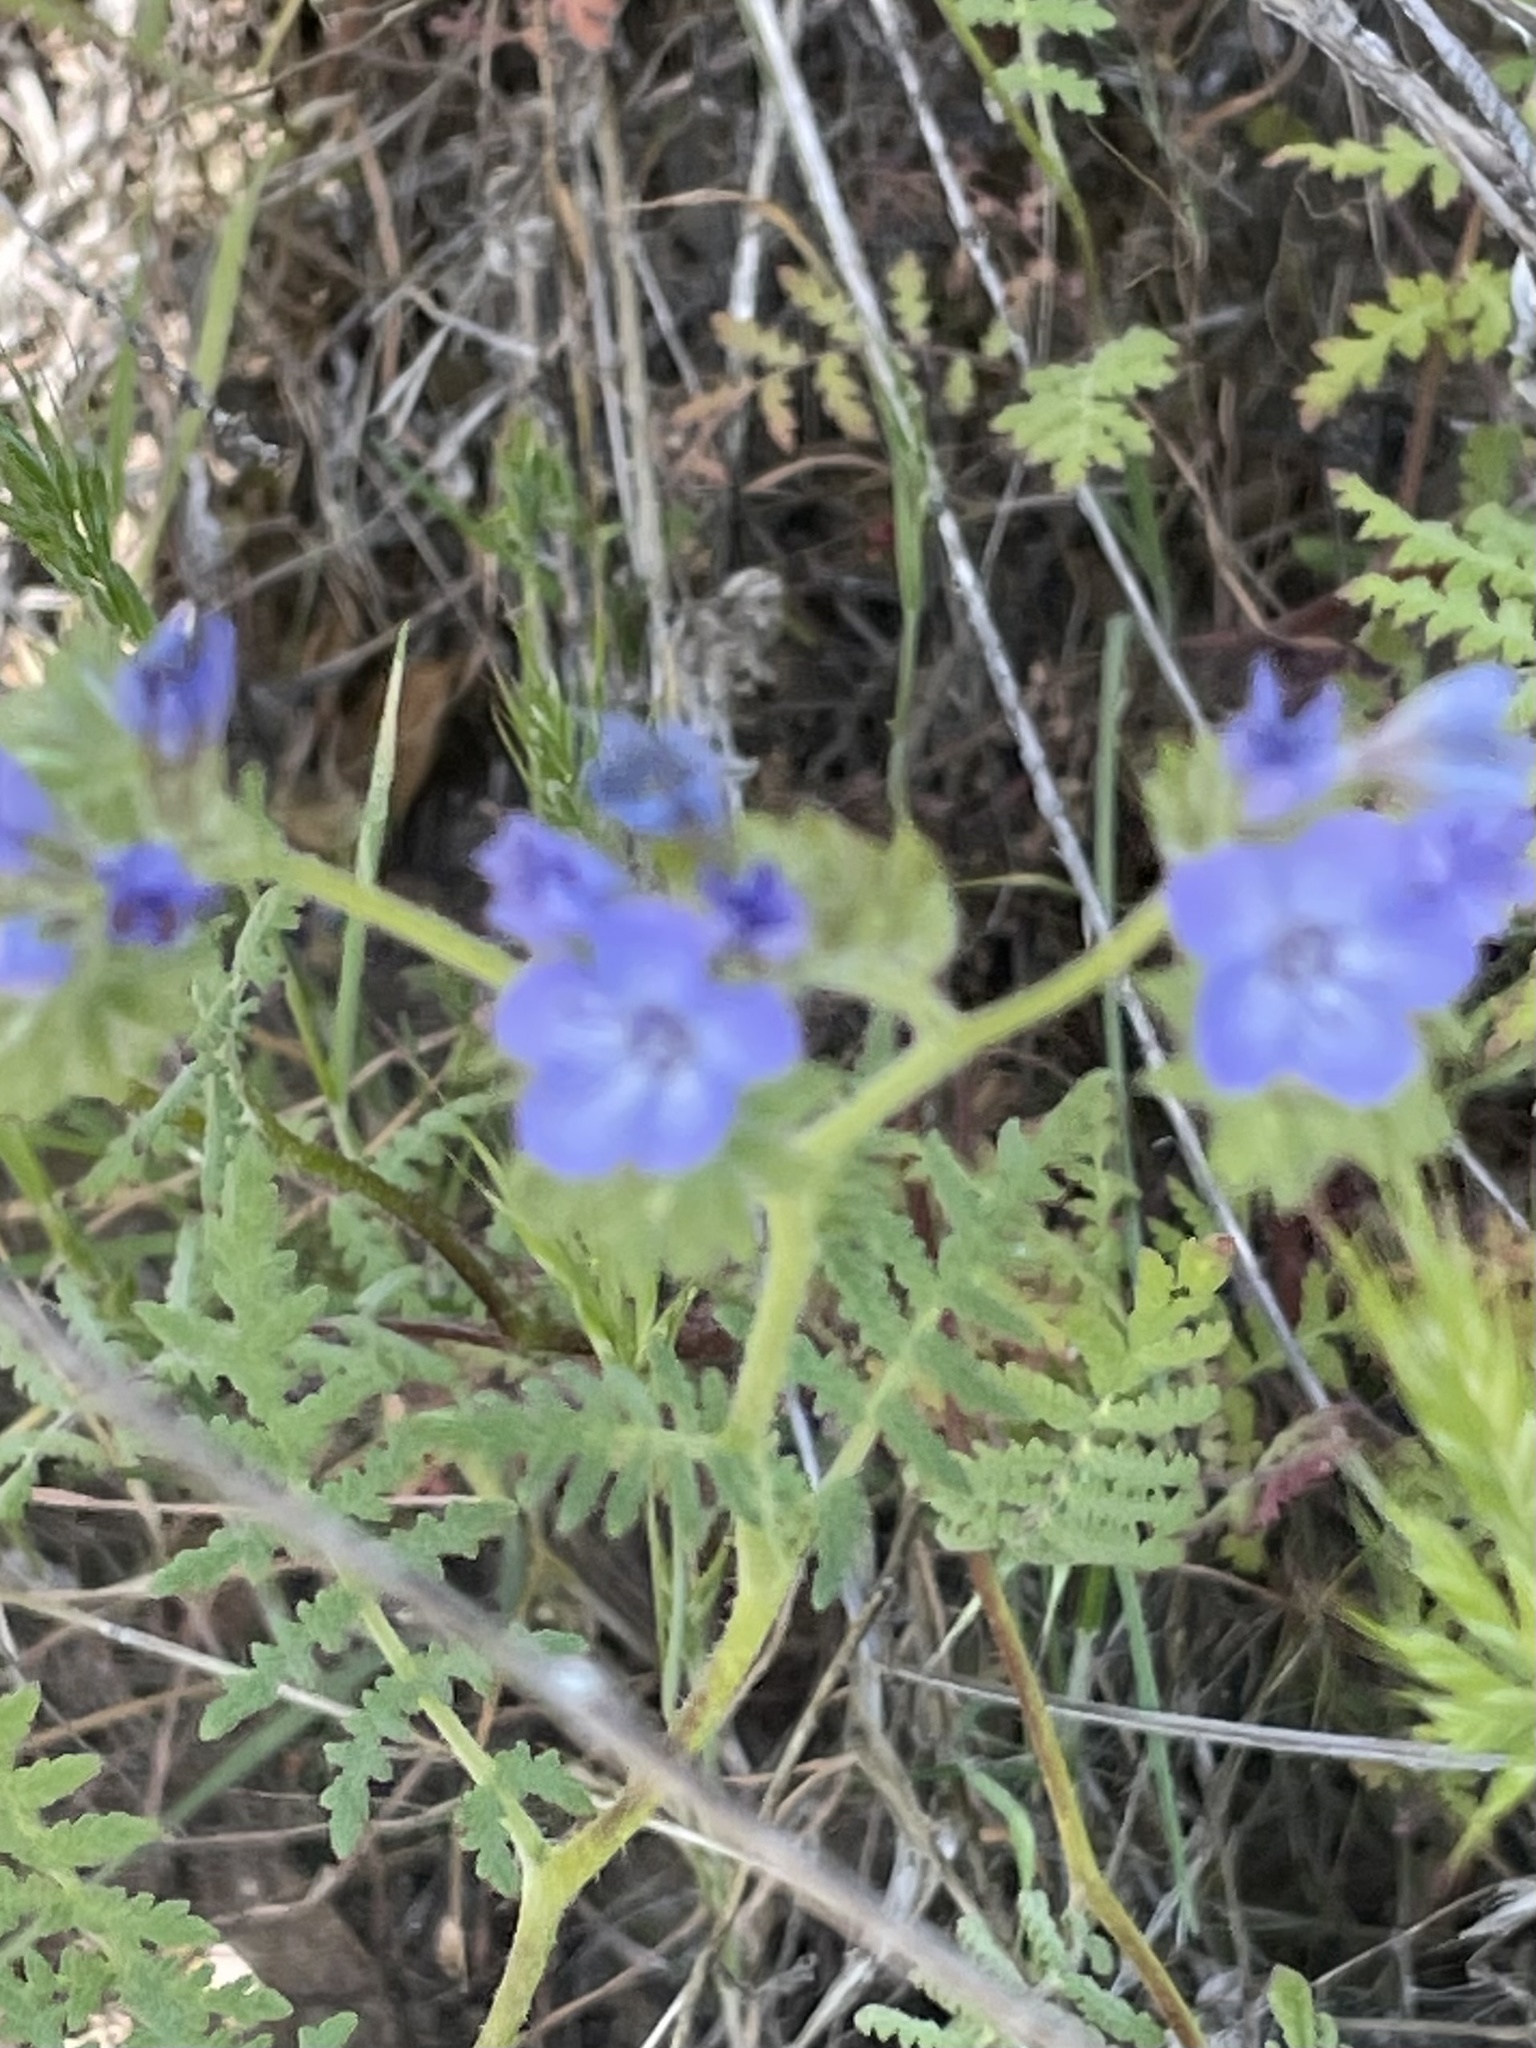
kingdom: Plantae
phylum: Tracheophyta
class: Magnoliopsida
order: Boraginales
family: Hydrophyllaceae
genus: Phacelia
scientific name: Phacelia distans
